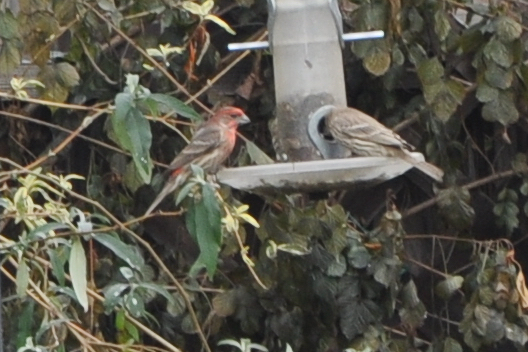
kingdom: Animalia
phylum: Chordata
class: Aves
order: Passeriformes
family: Fringillidae
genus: Haemorhous
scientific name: Haemorhous mexicanus
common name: House finch
